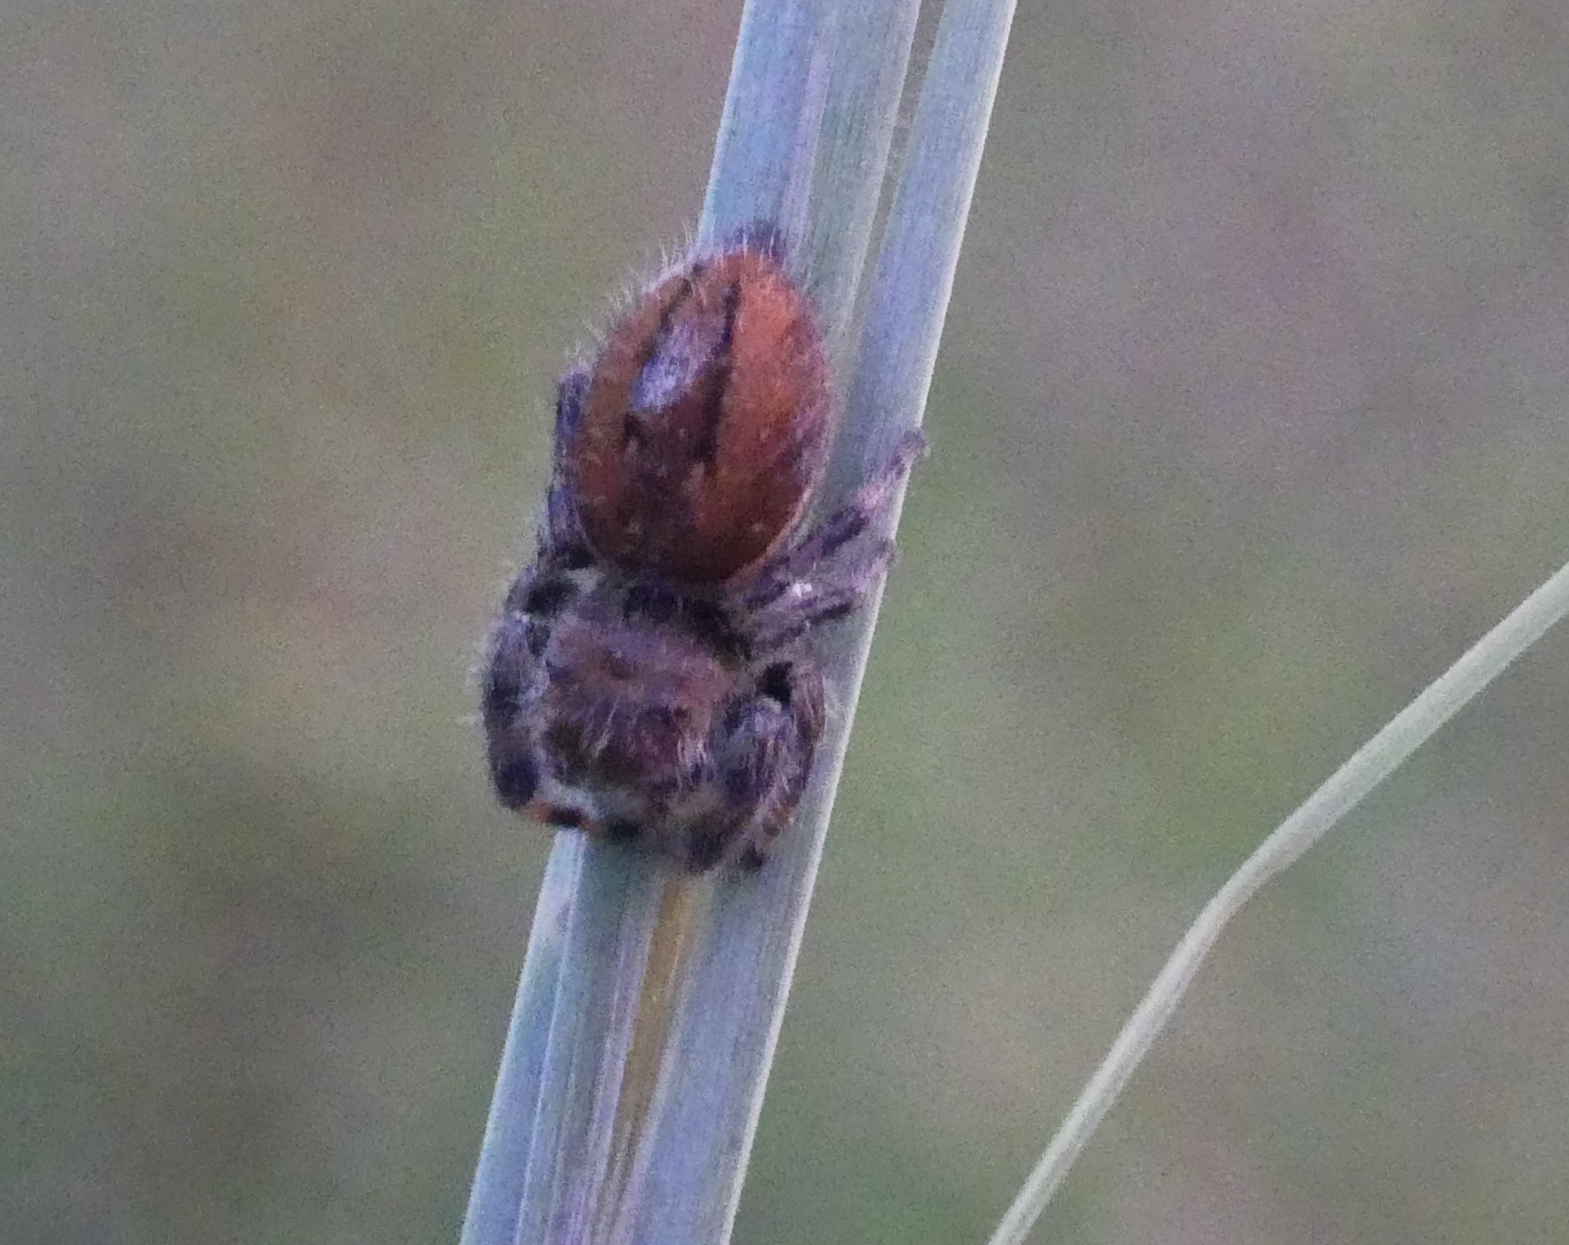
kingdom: Animalia
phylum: Arthropoda
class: Arachnida
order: Araneae
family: Salticidae
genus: Phidippus
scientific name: Phidippus clarus
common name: Brilliant jumping spider
